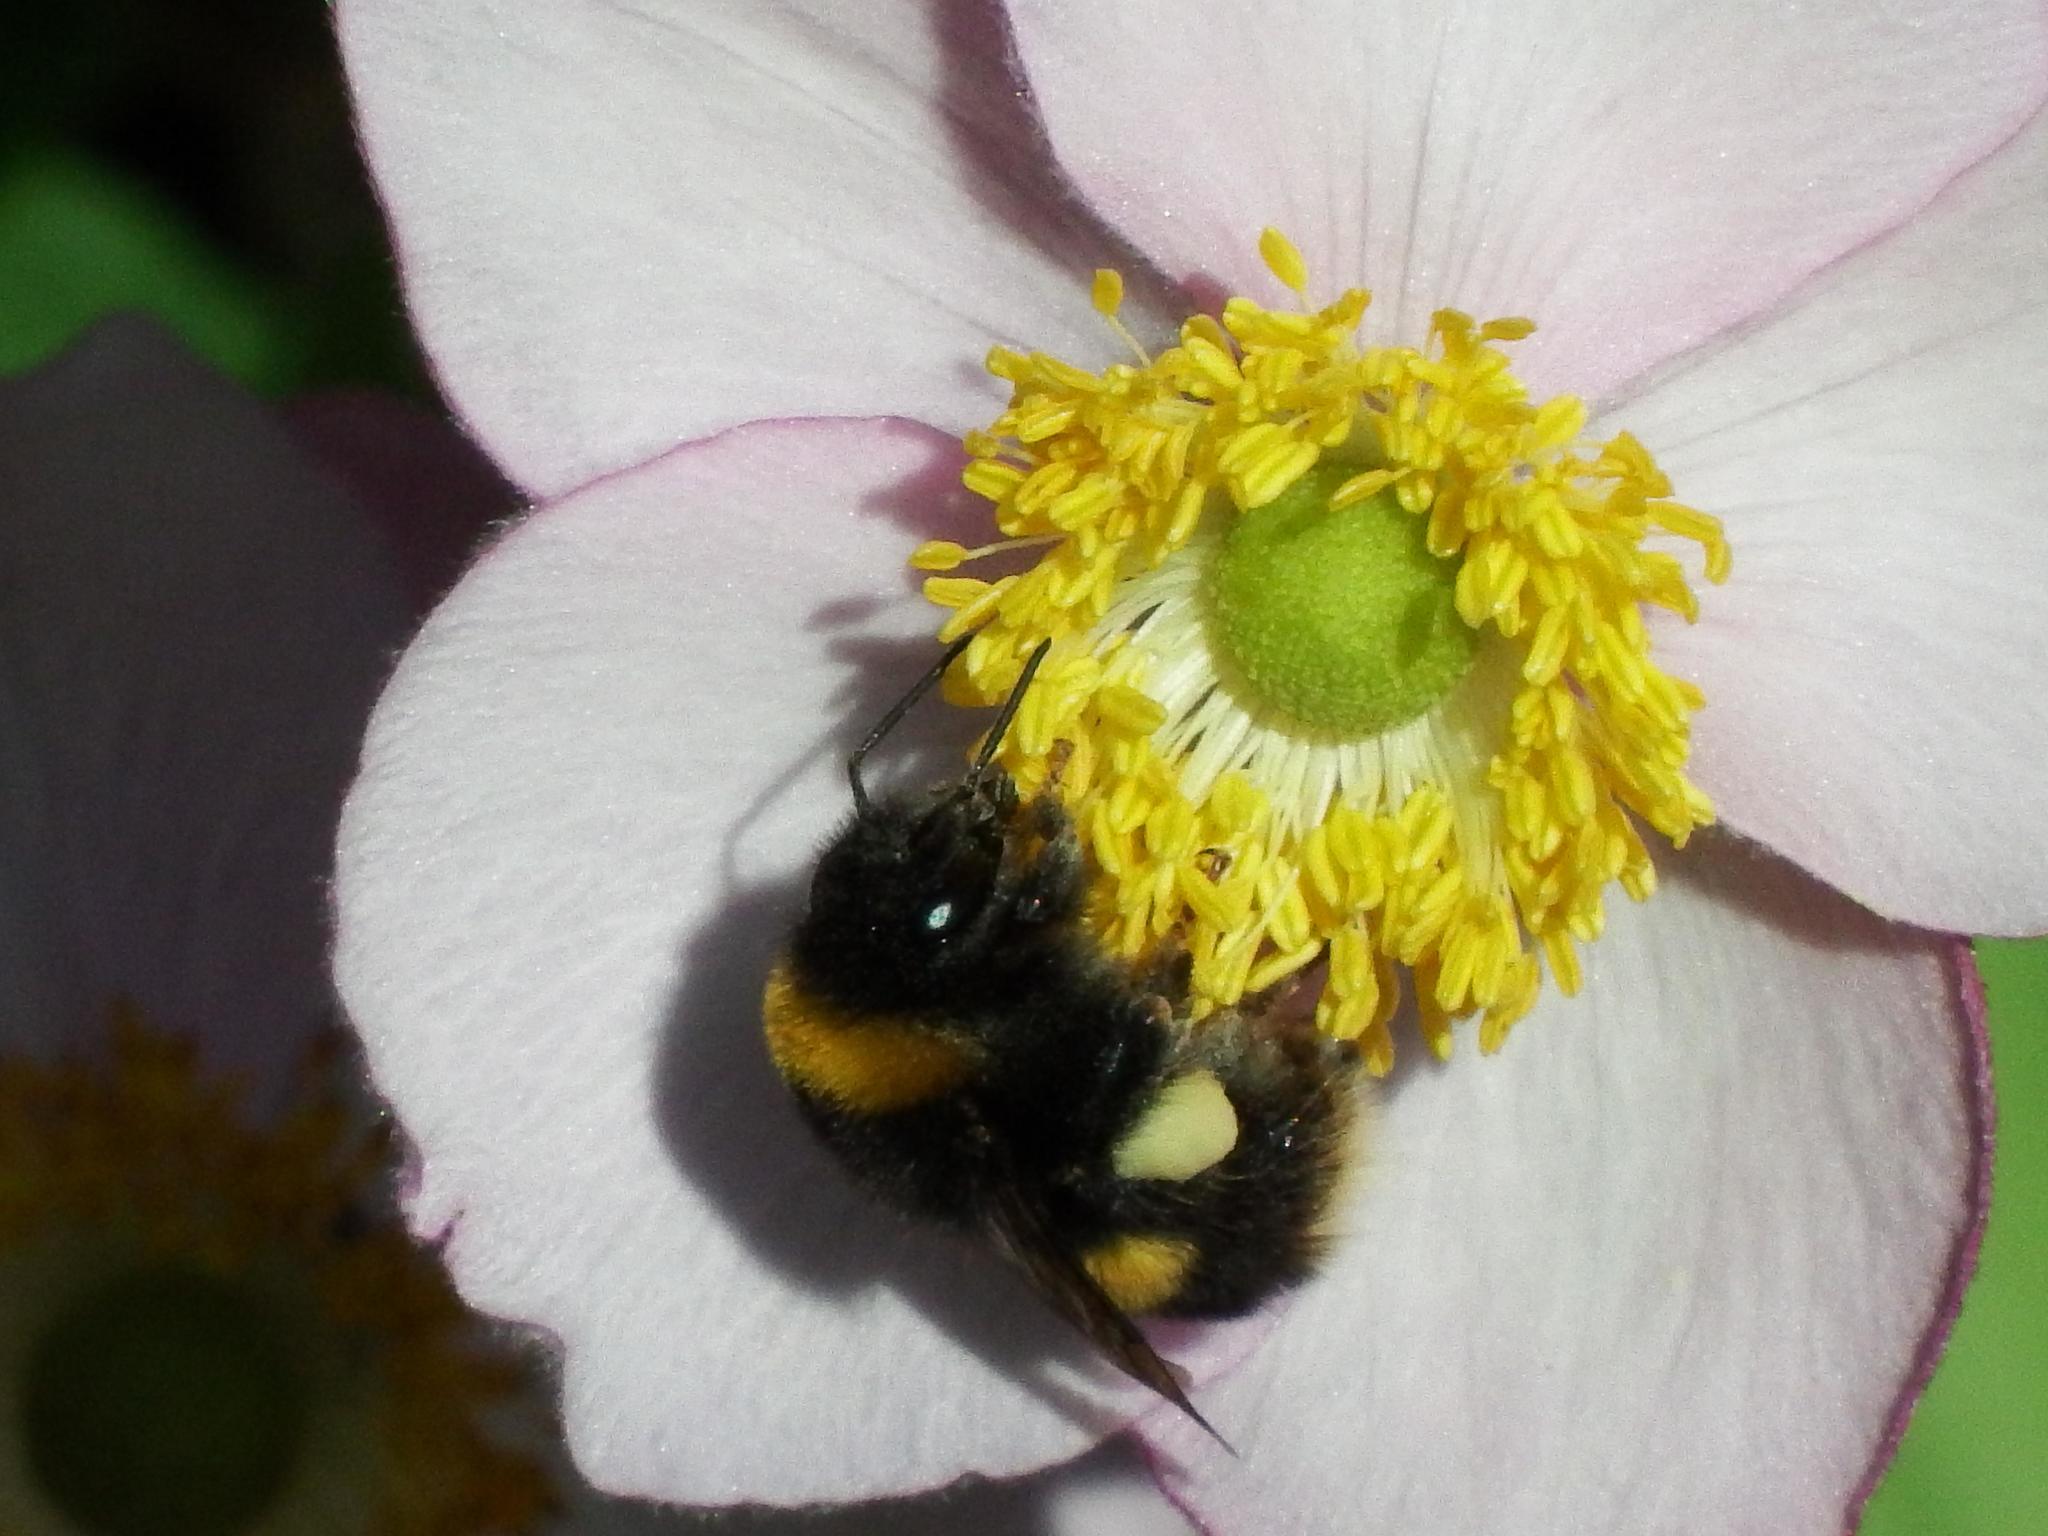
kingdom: Animalia
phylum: Arthropoda
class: Insecta
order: Hymenoptera
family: Apidae
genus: Bombus
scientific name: Bombus terrestris
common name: Buff-tailed bumblebee
